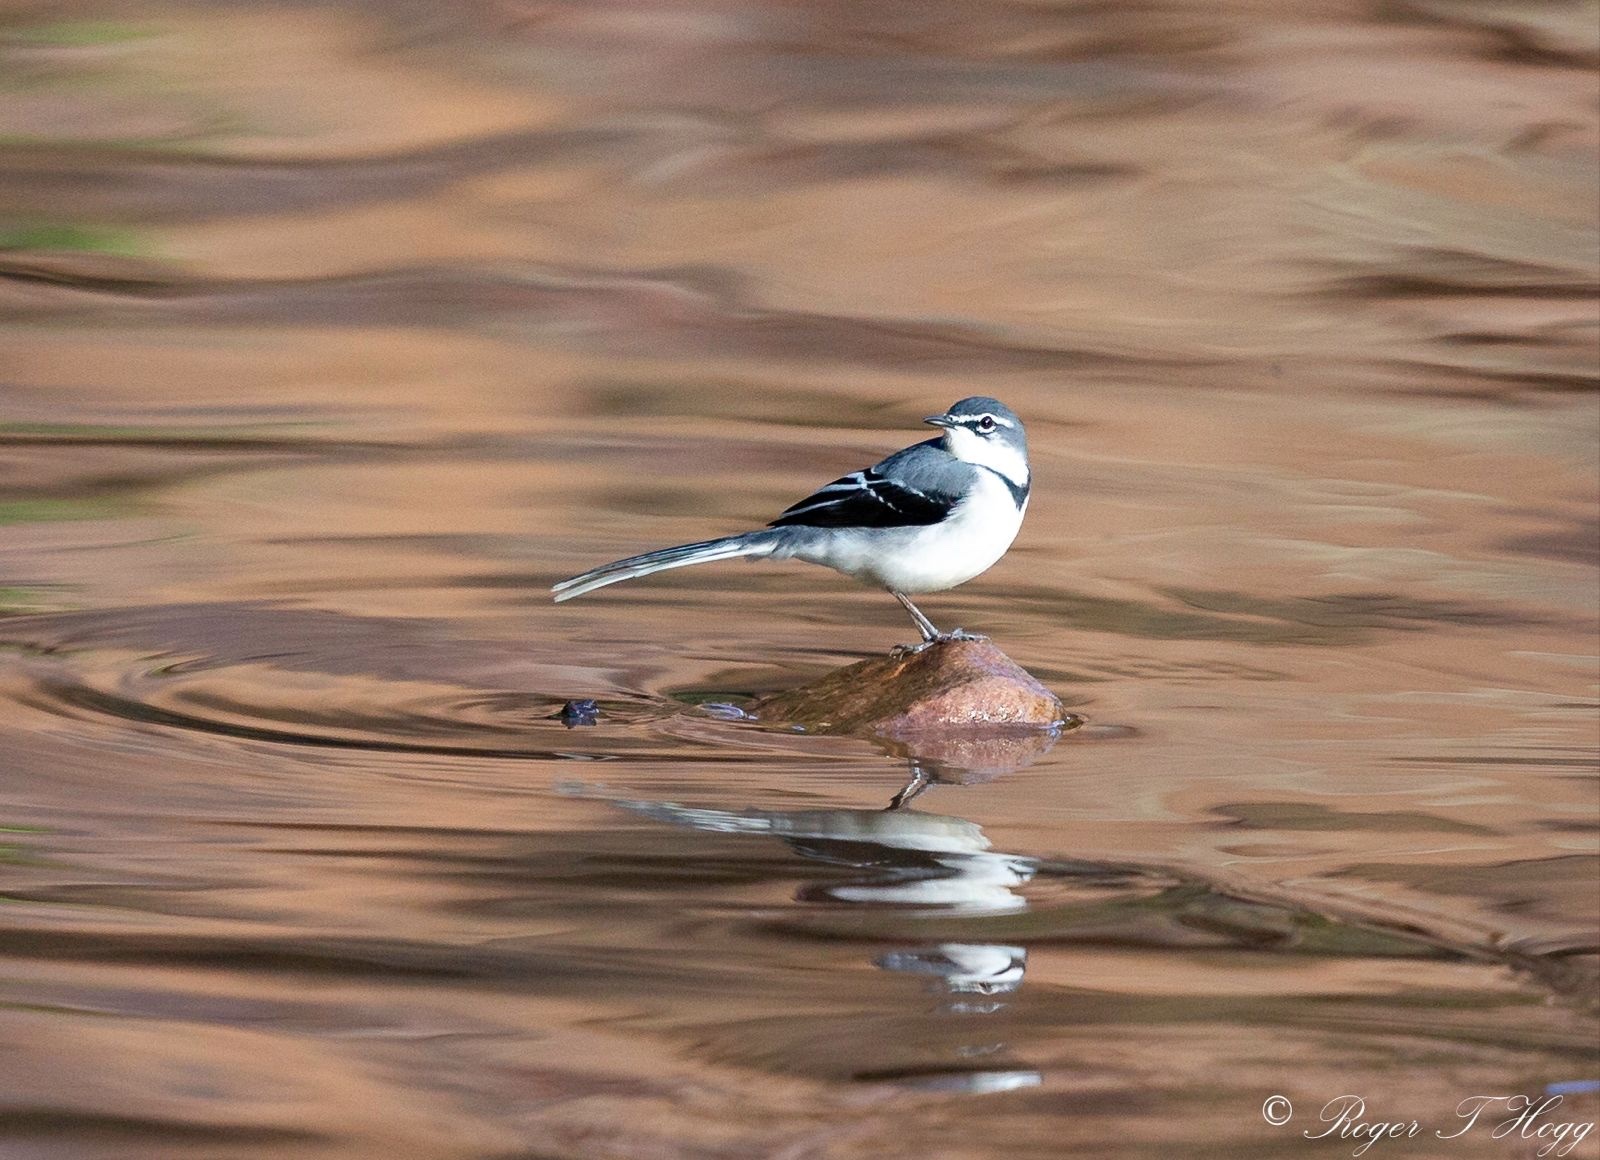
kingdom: Animalia
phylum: Chordata
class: Aves
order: Passeriformes
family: Motacillidae
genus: Motacilla
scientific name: Motacilla clara
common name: Mountain wagtail
